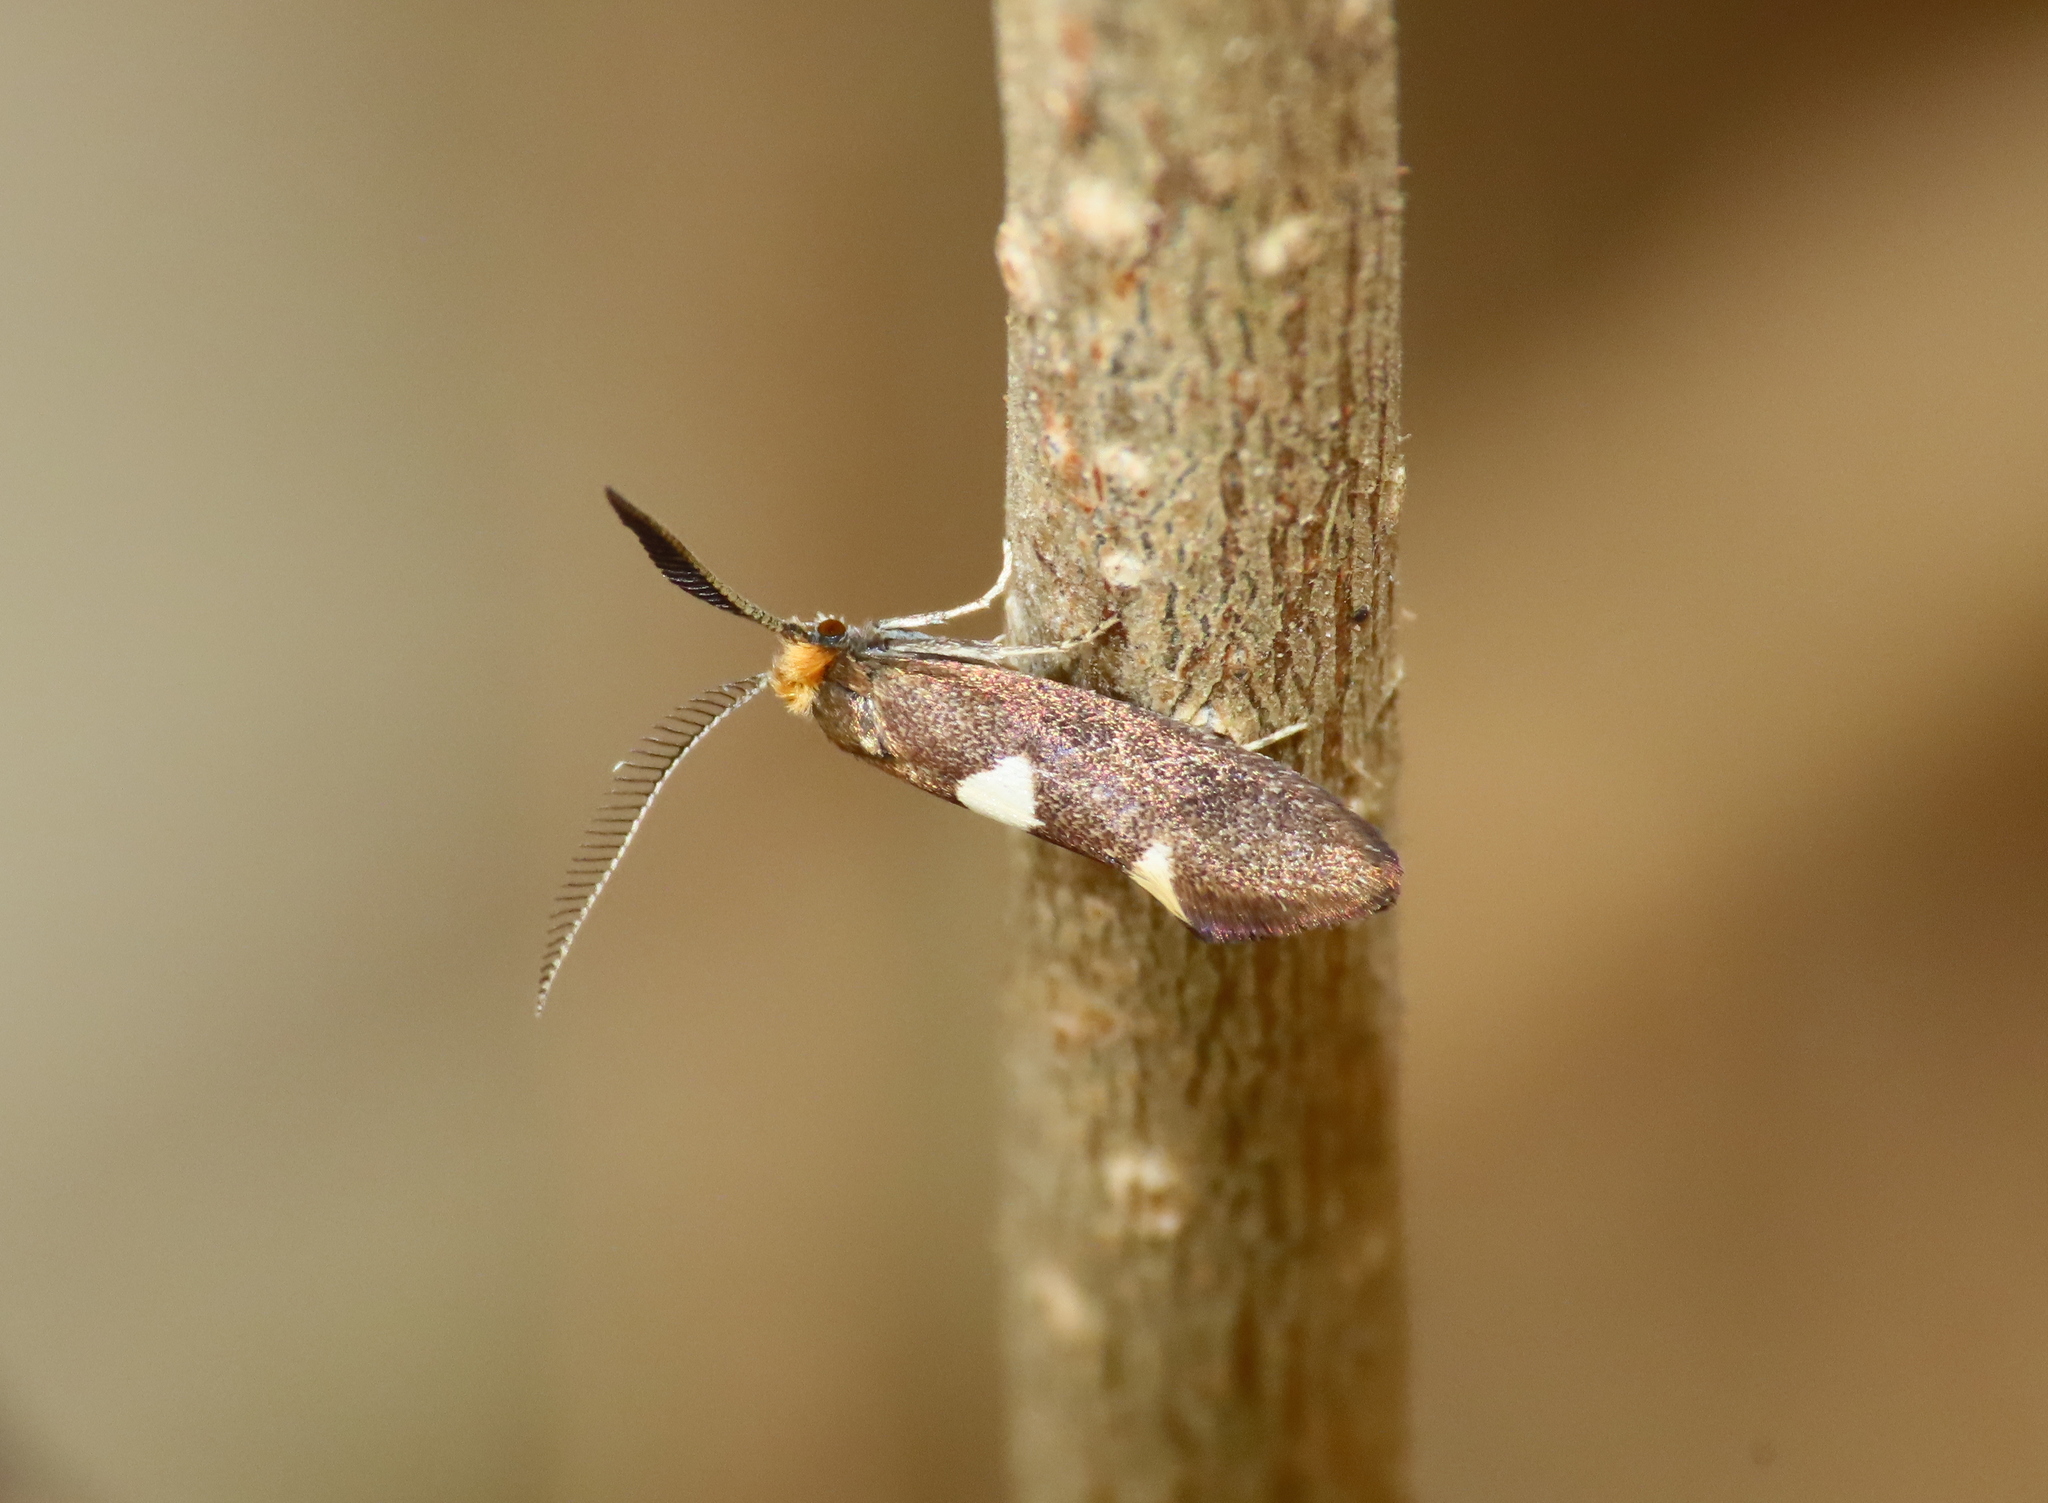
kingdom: Animalia
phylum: Arthropoda
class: Insecta
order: Lepidoptera
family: Incurvariidae
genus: Incurvaria
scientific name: Incurvaria masculella
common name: Feathered leaf-cutter
